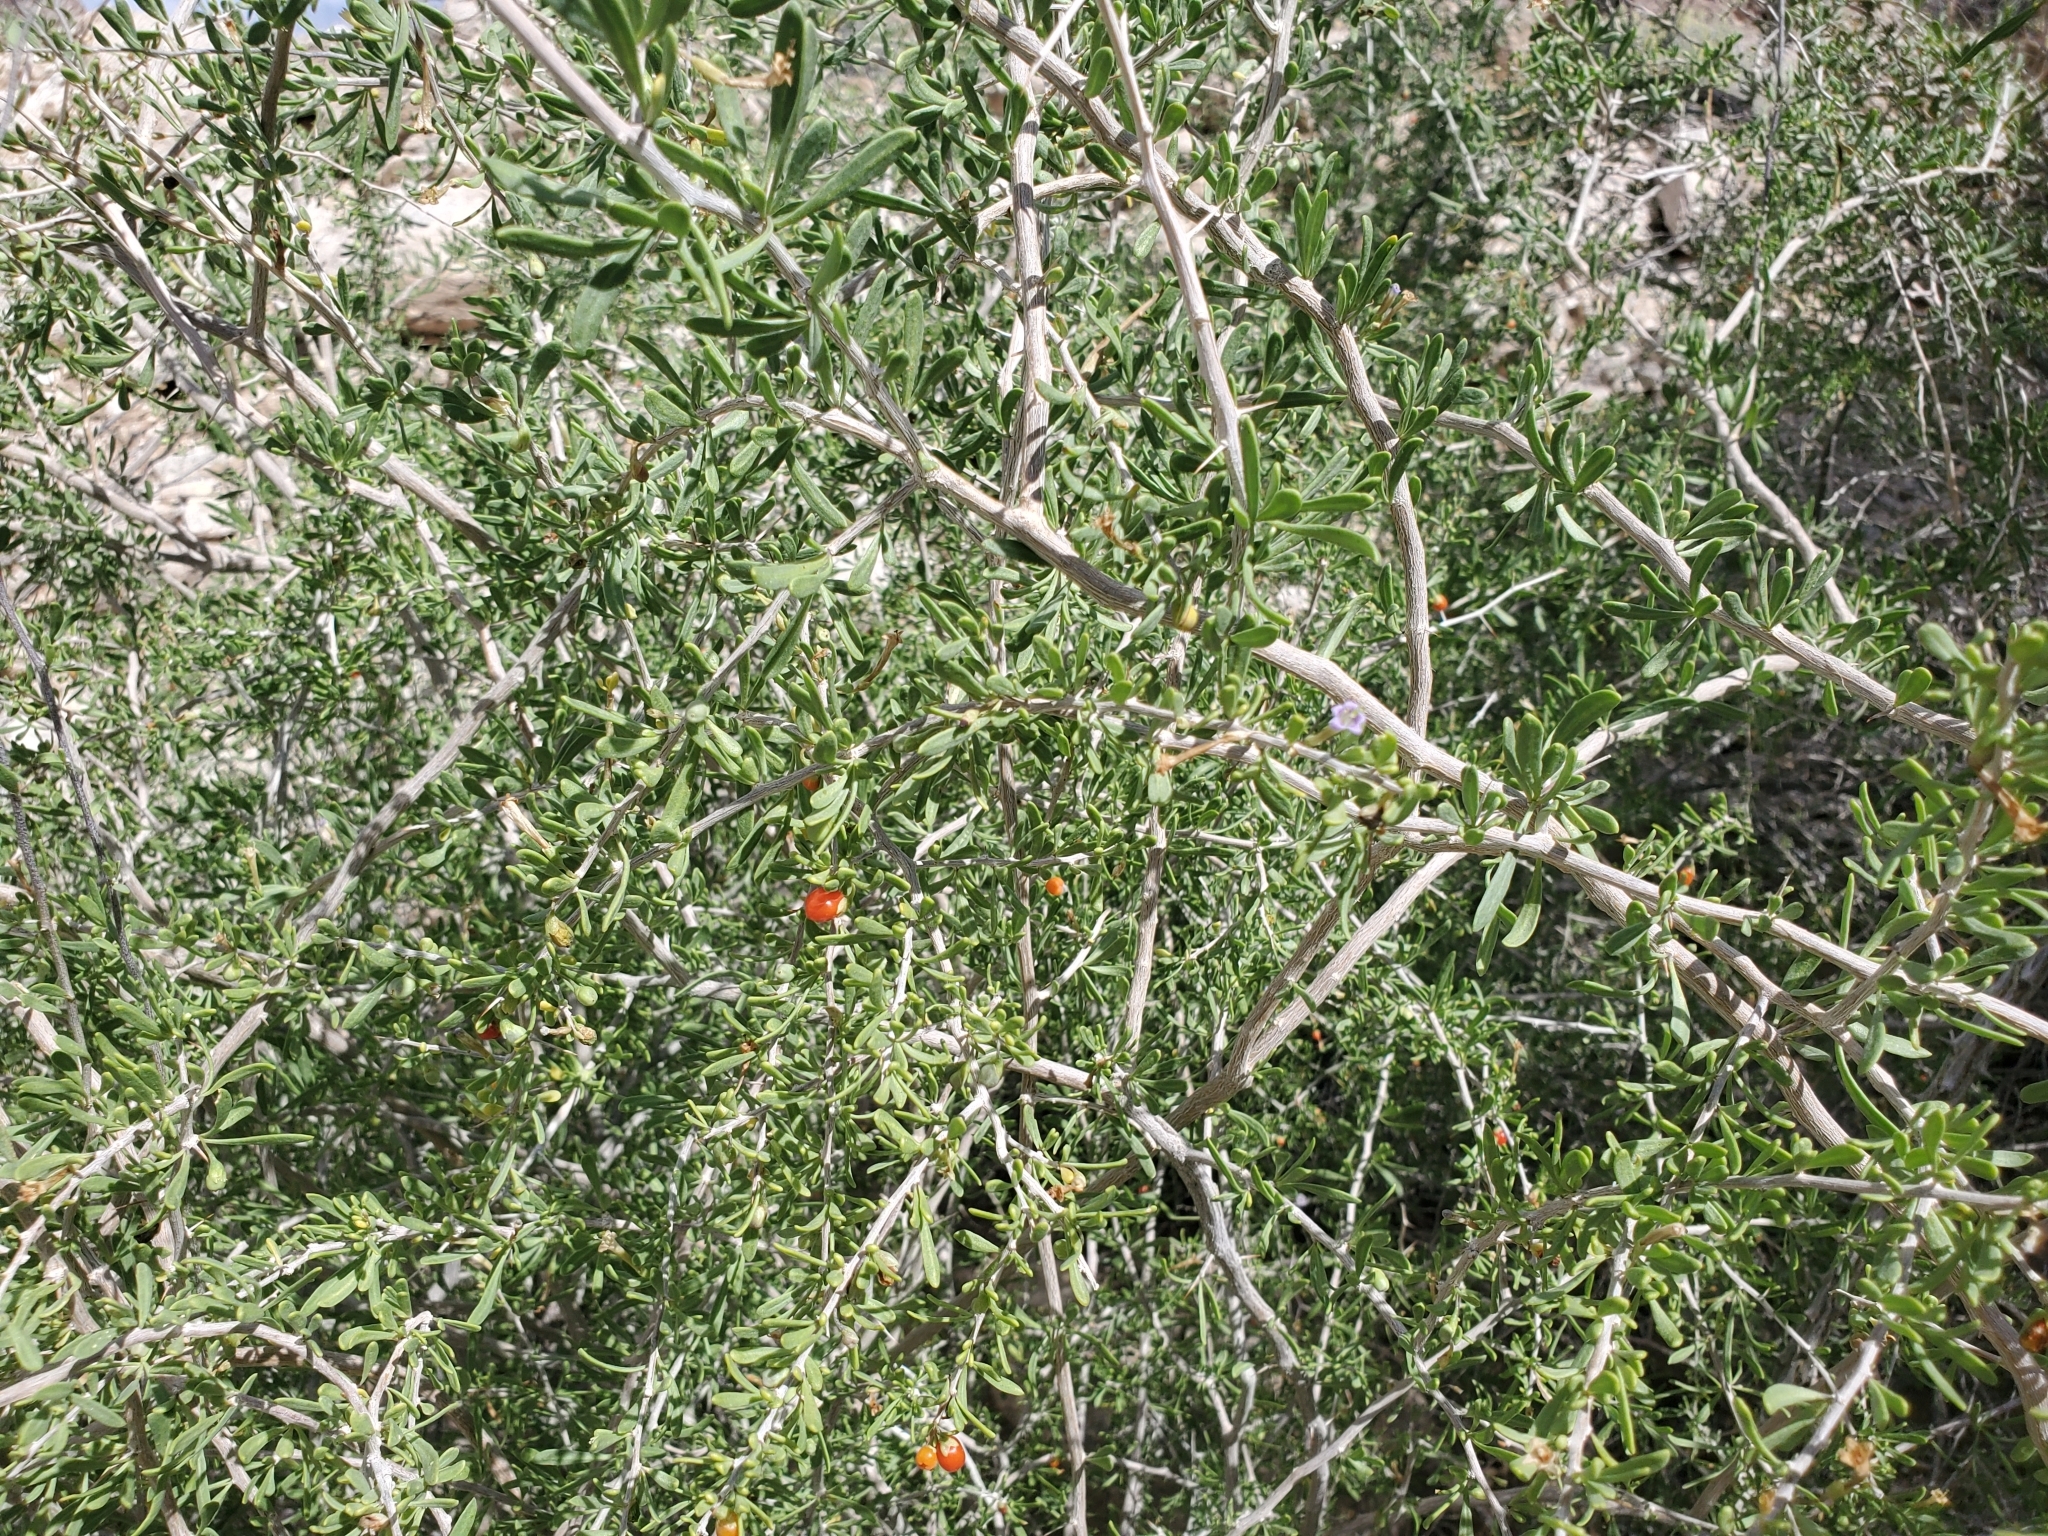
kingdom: Plantae
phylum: Tracheophyta
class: Magnoliopsida
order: Solanales
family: Solanaceae
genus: Lycium
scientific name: Lycium andersonii
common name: Water-jacket
